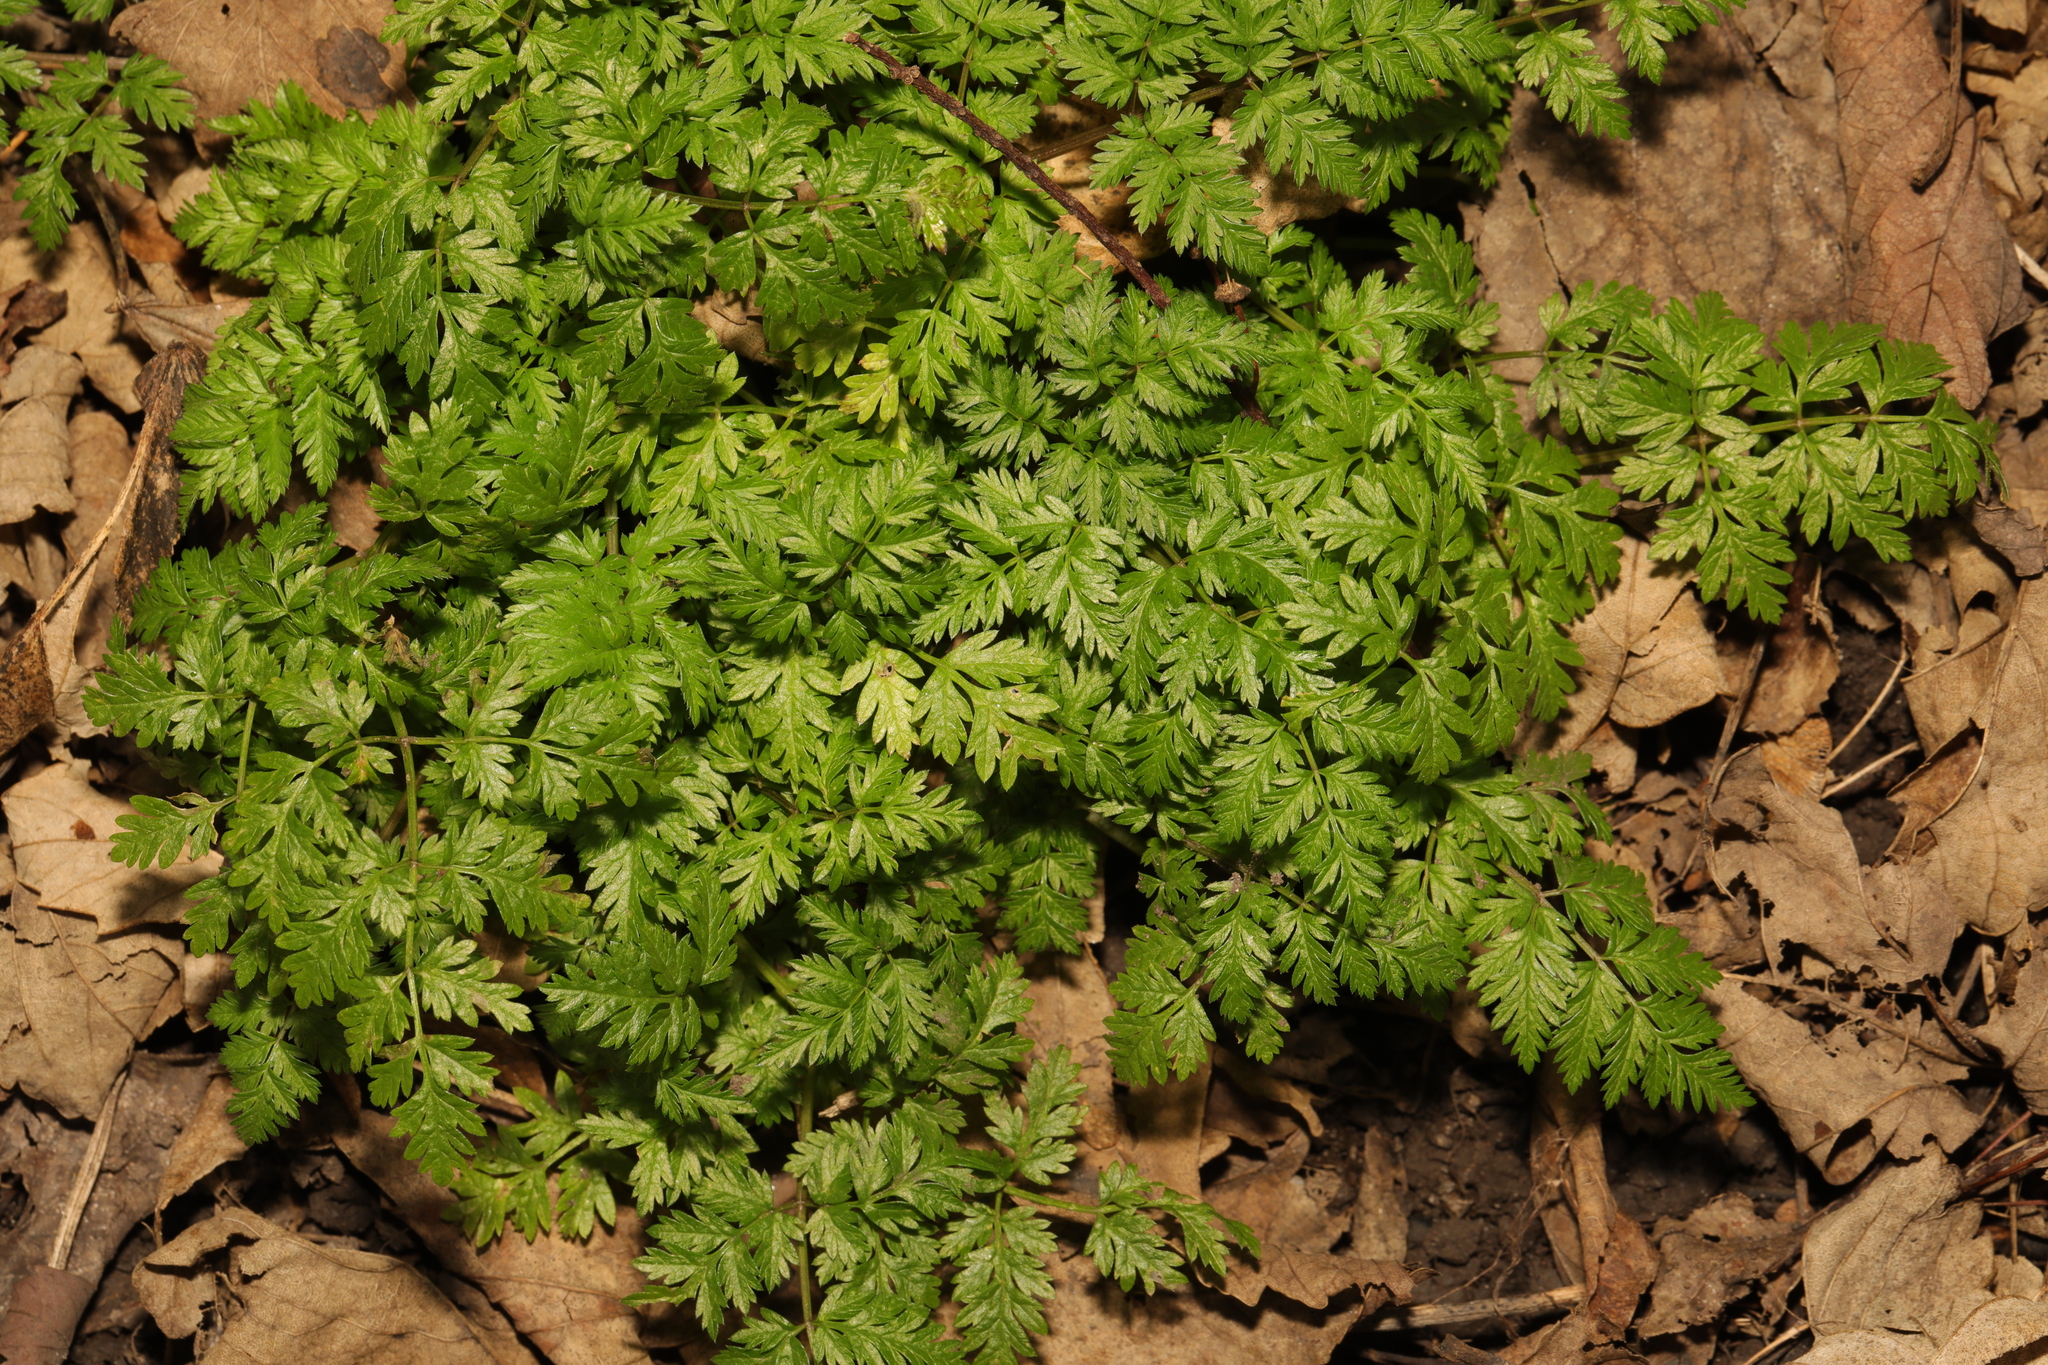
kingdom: Plantae
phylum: Tracheophyta
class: Magnoliopsida
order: Apiales
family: Apiaceae
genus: Anthriscus
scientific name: Anthriscus sylvestris
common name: Cow parsley
